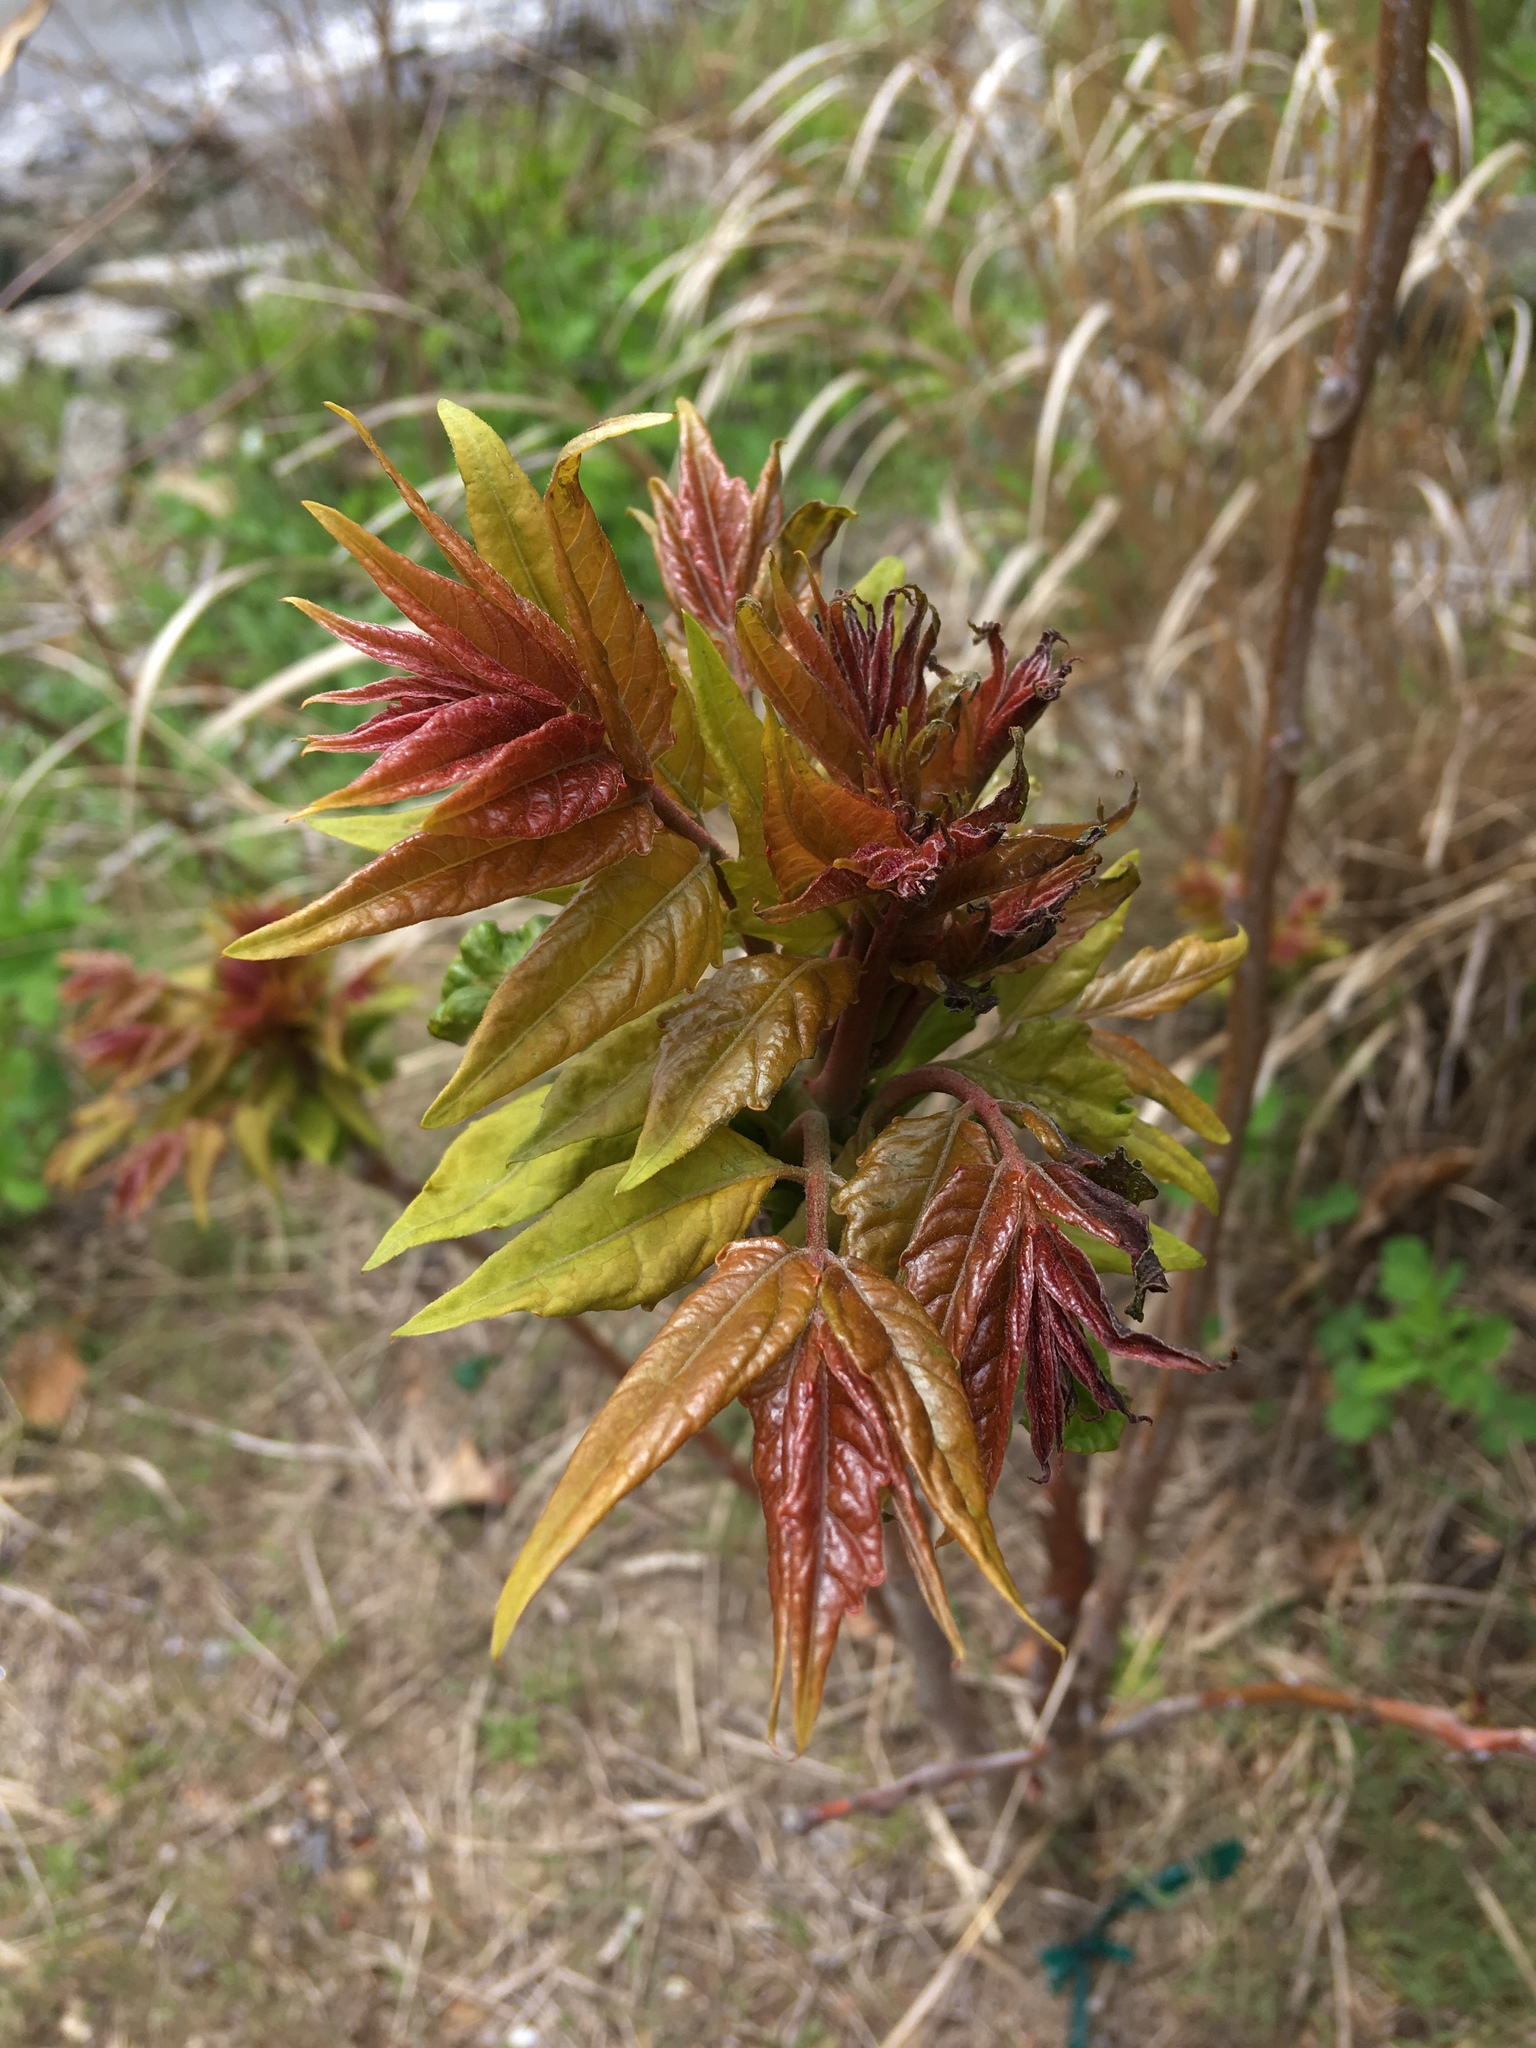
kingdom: Plantae
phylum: Tracheophyta
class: Magnoliopsida
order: Sapindales
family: Simaroubaceae
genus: Ailanthus
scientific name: Ailanthus altissima
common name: Tree-of-heaven
